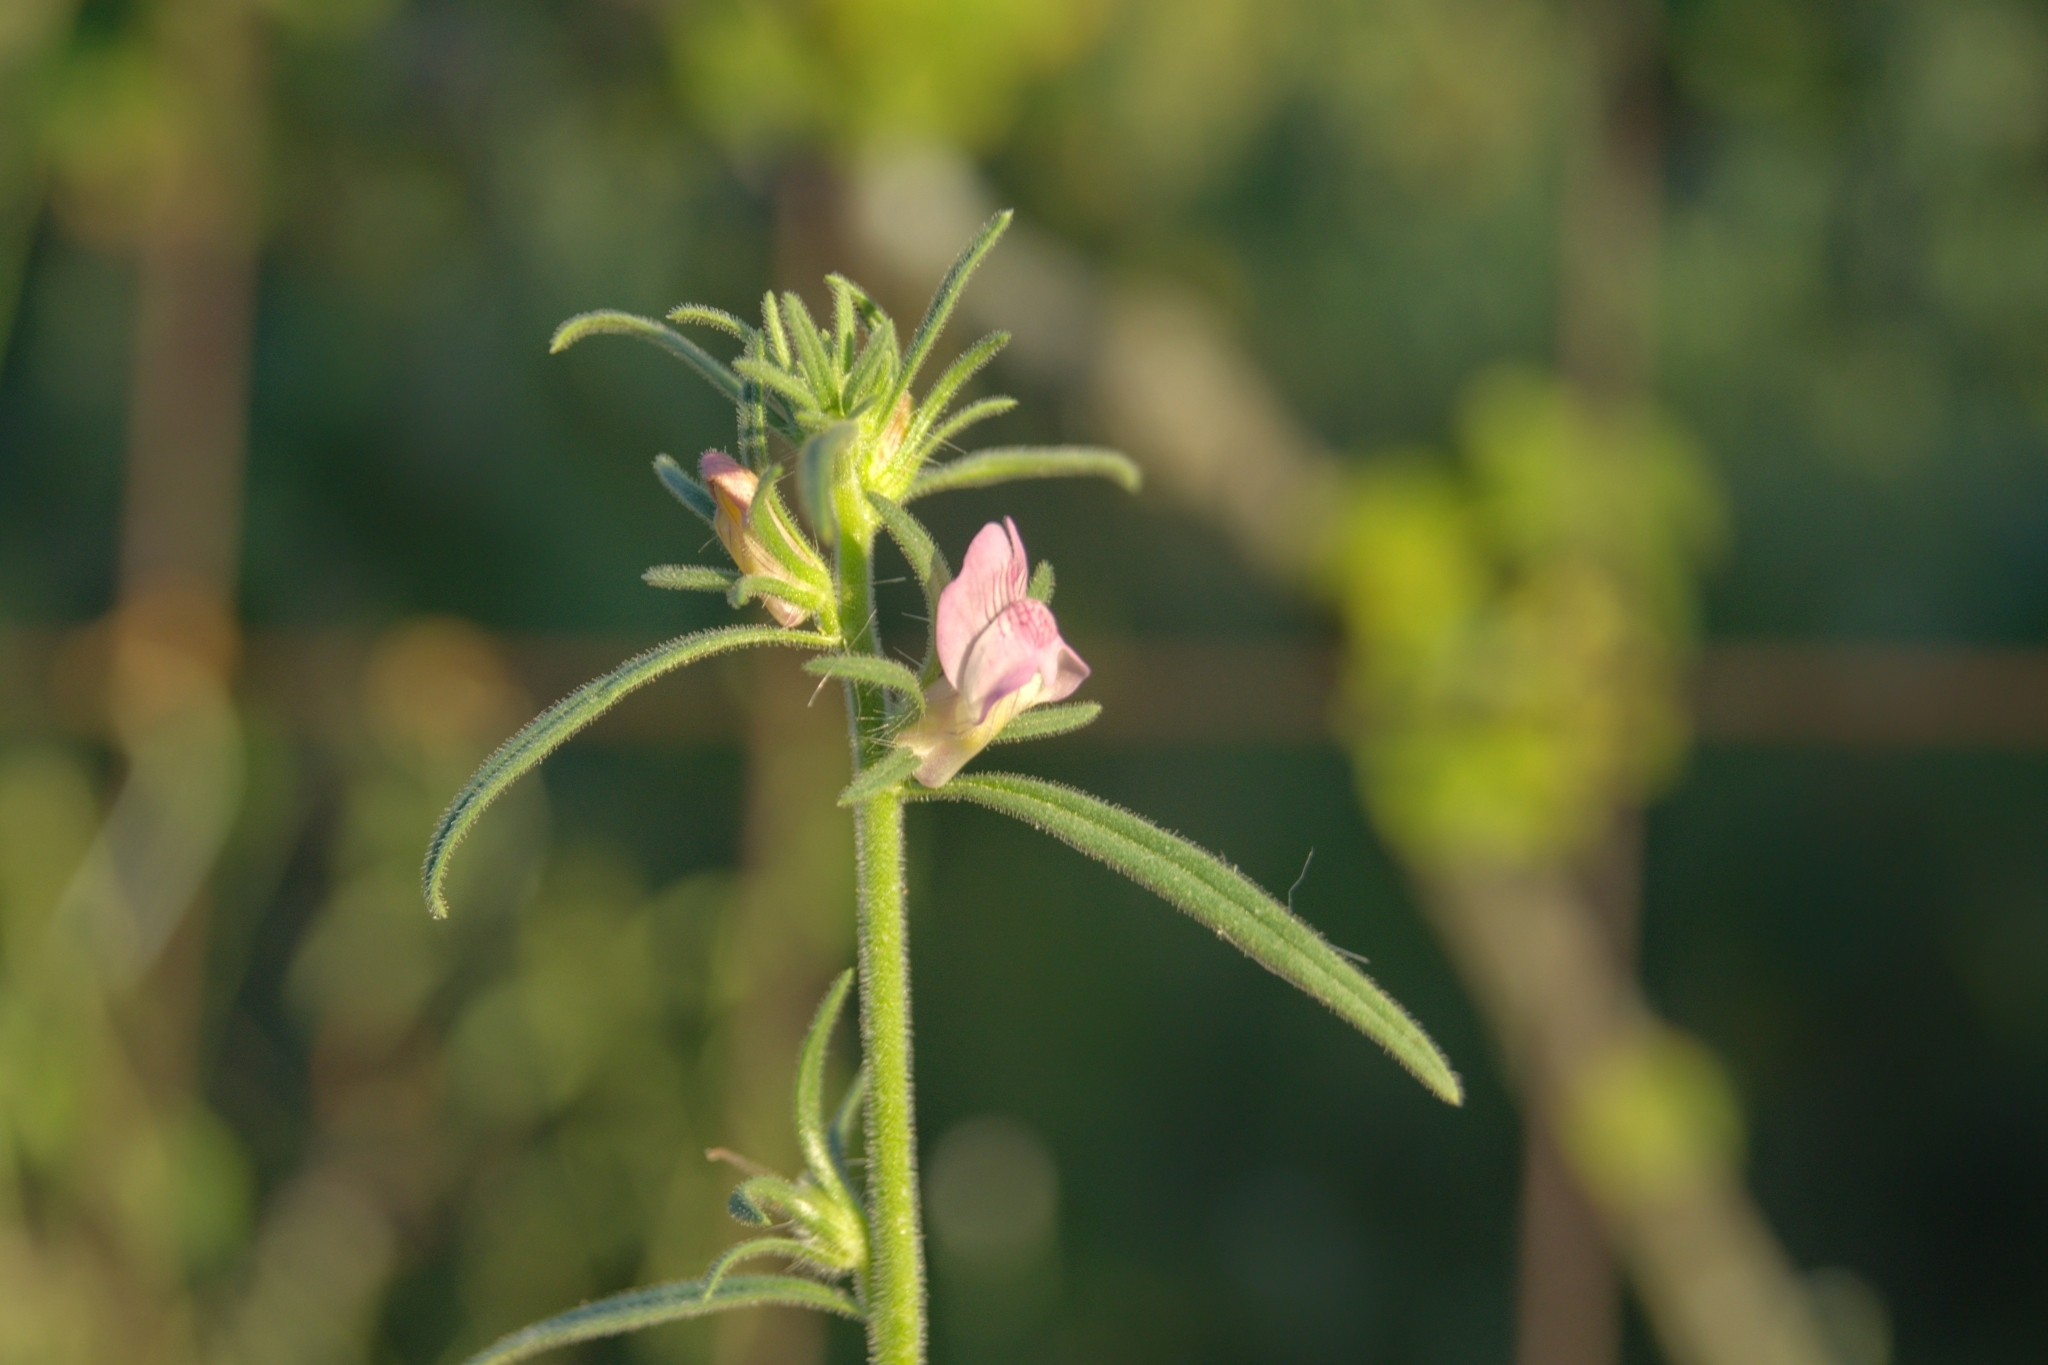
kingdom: Plantae
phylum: Tracheophyta
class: Magnoliopsida
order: Lamiales
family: Plantaginaceae
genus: Misopates
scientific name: Misopates orontium
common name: Weasel's-snout
